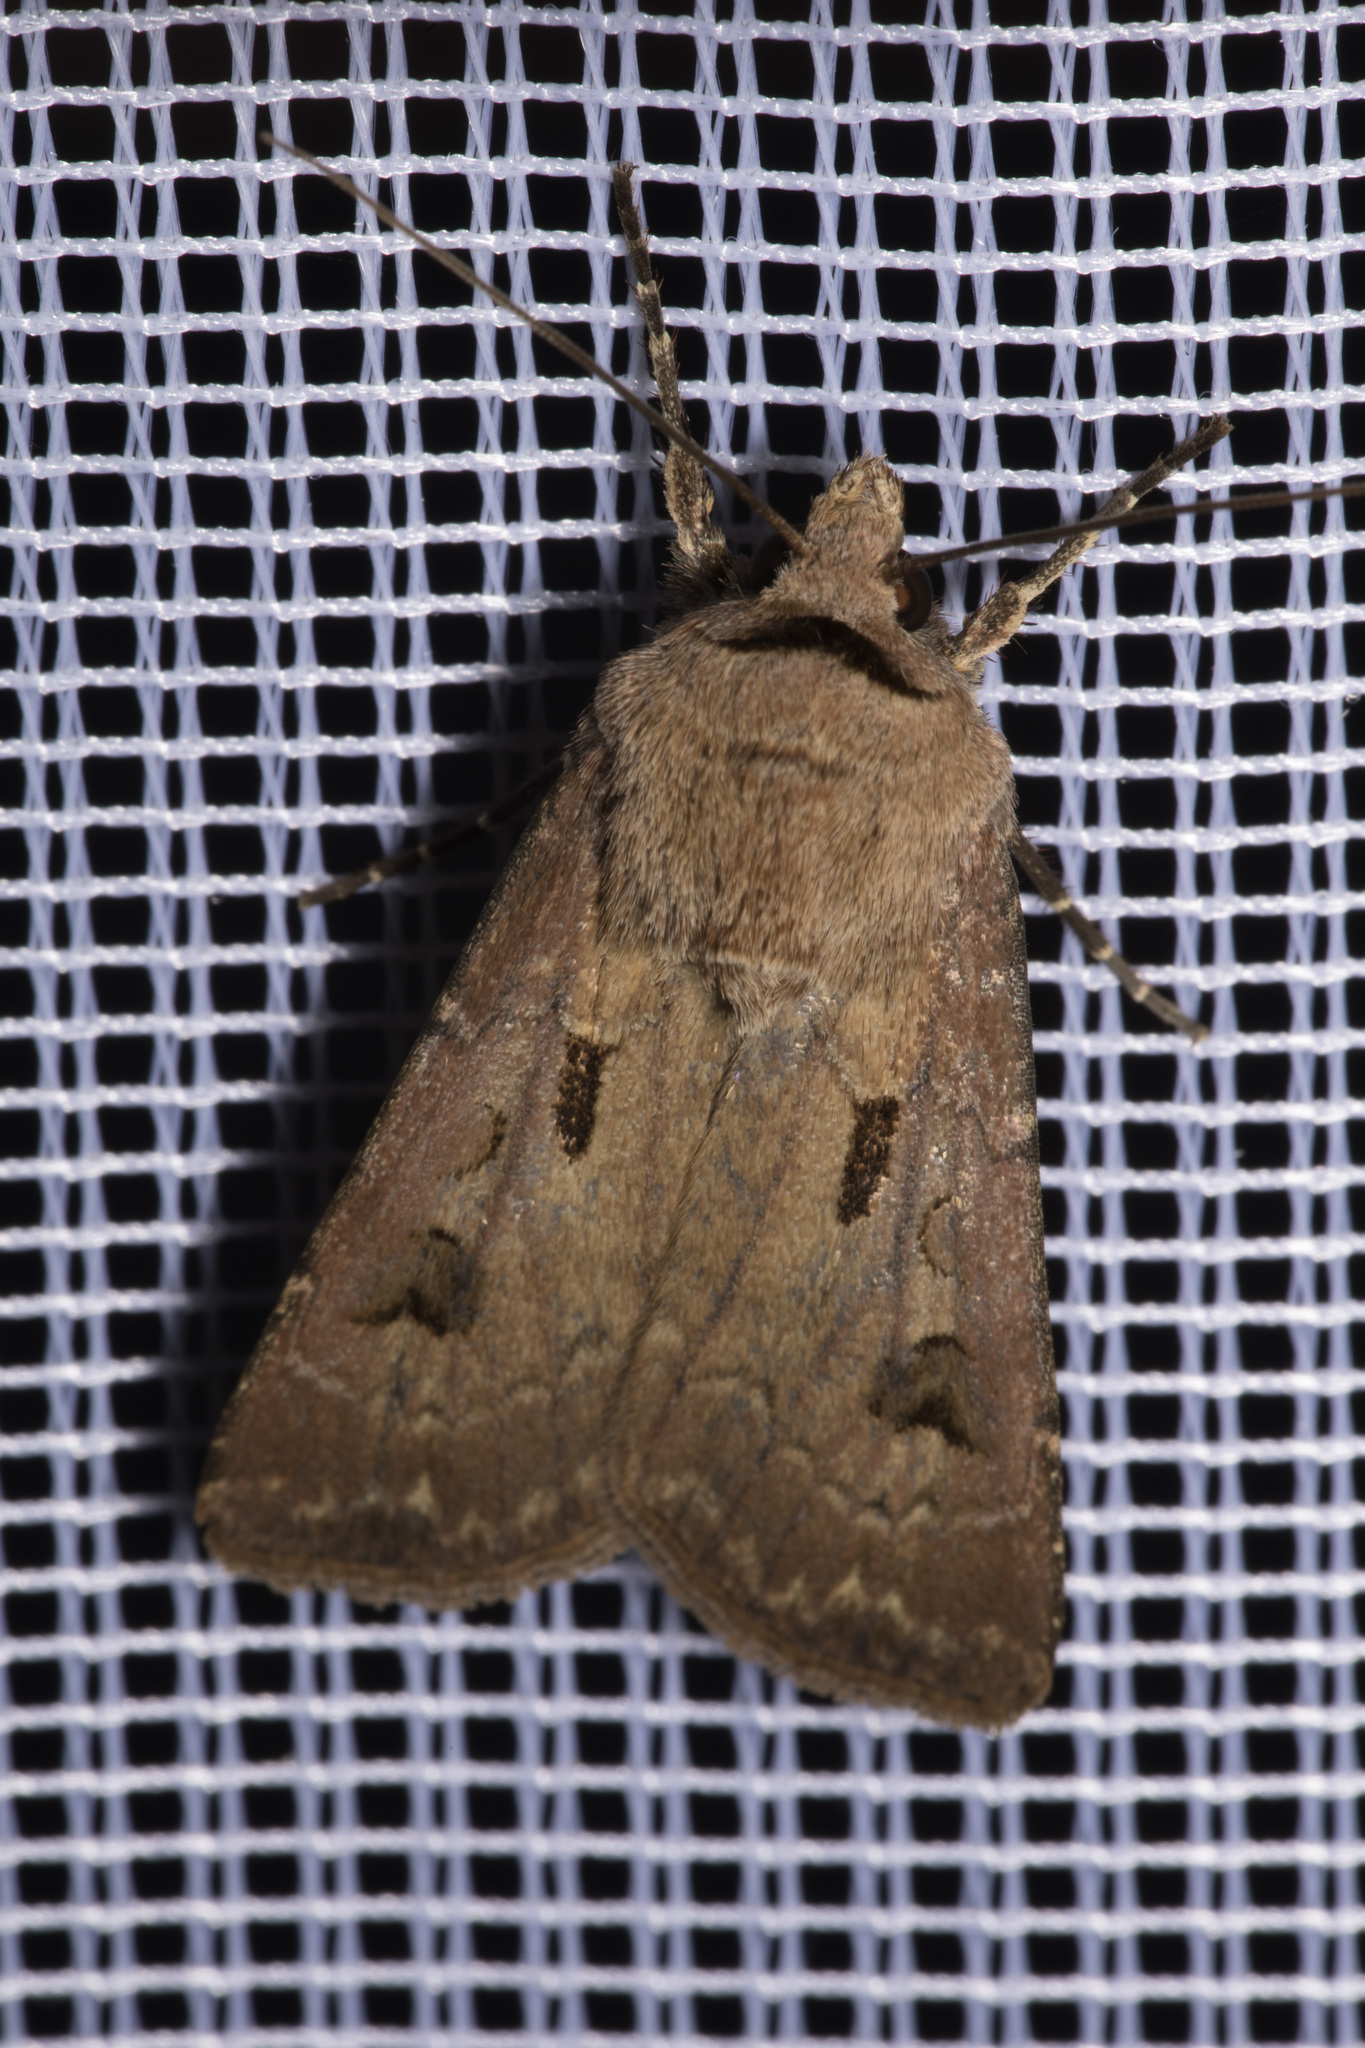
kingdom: Animalia
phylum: Arthropoda
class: Insecta
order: Lepidoptera
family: Noctuidae
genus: Agrotis
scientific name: Agrotis exclamationis
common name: Heart and dart
